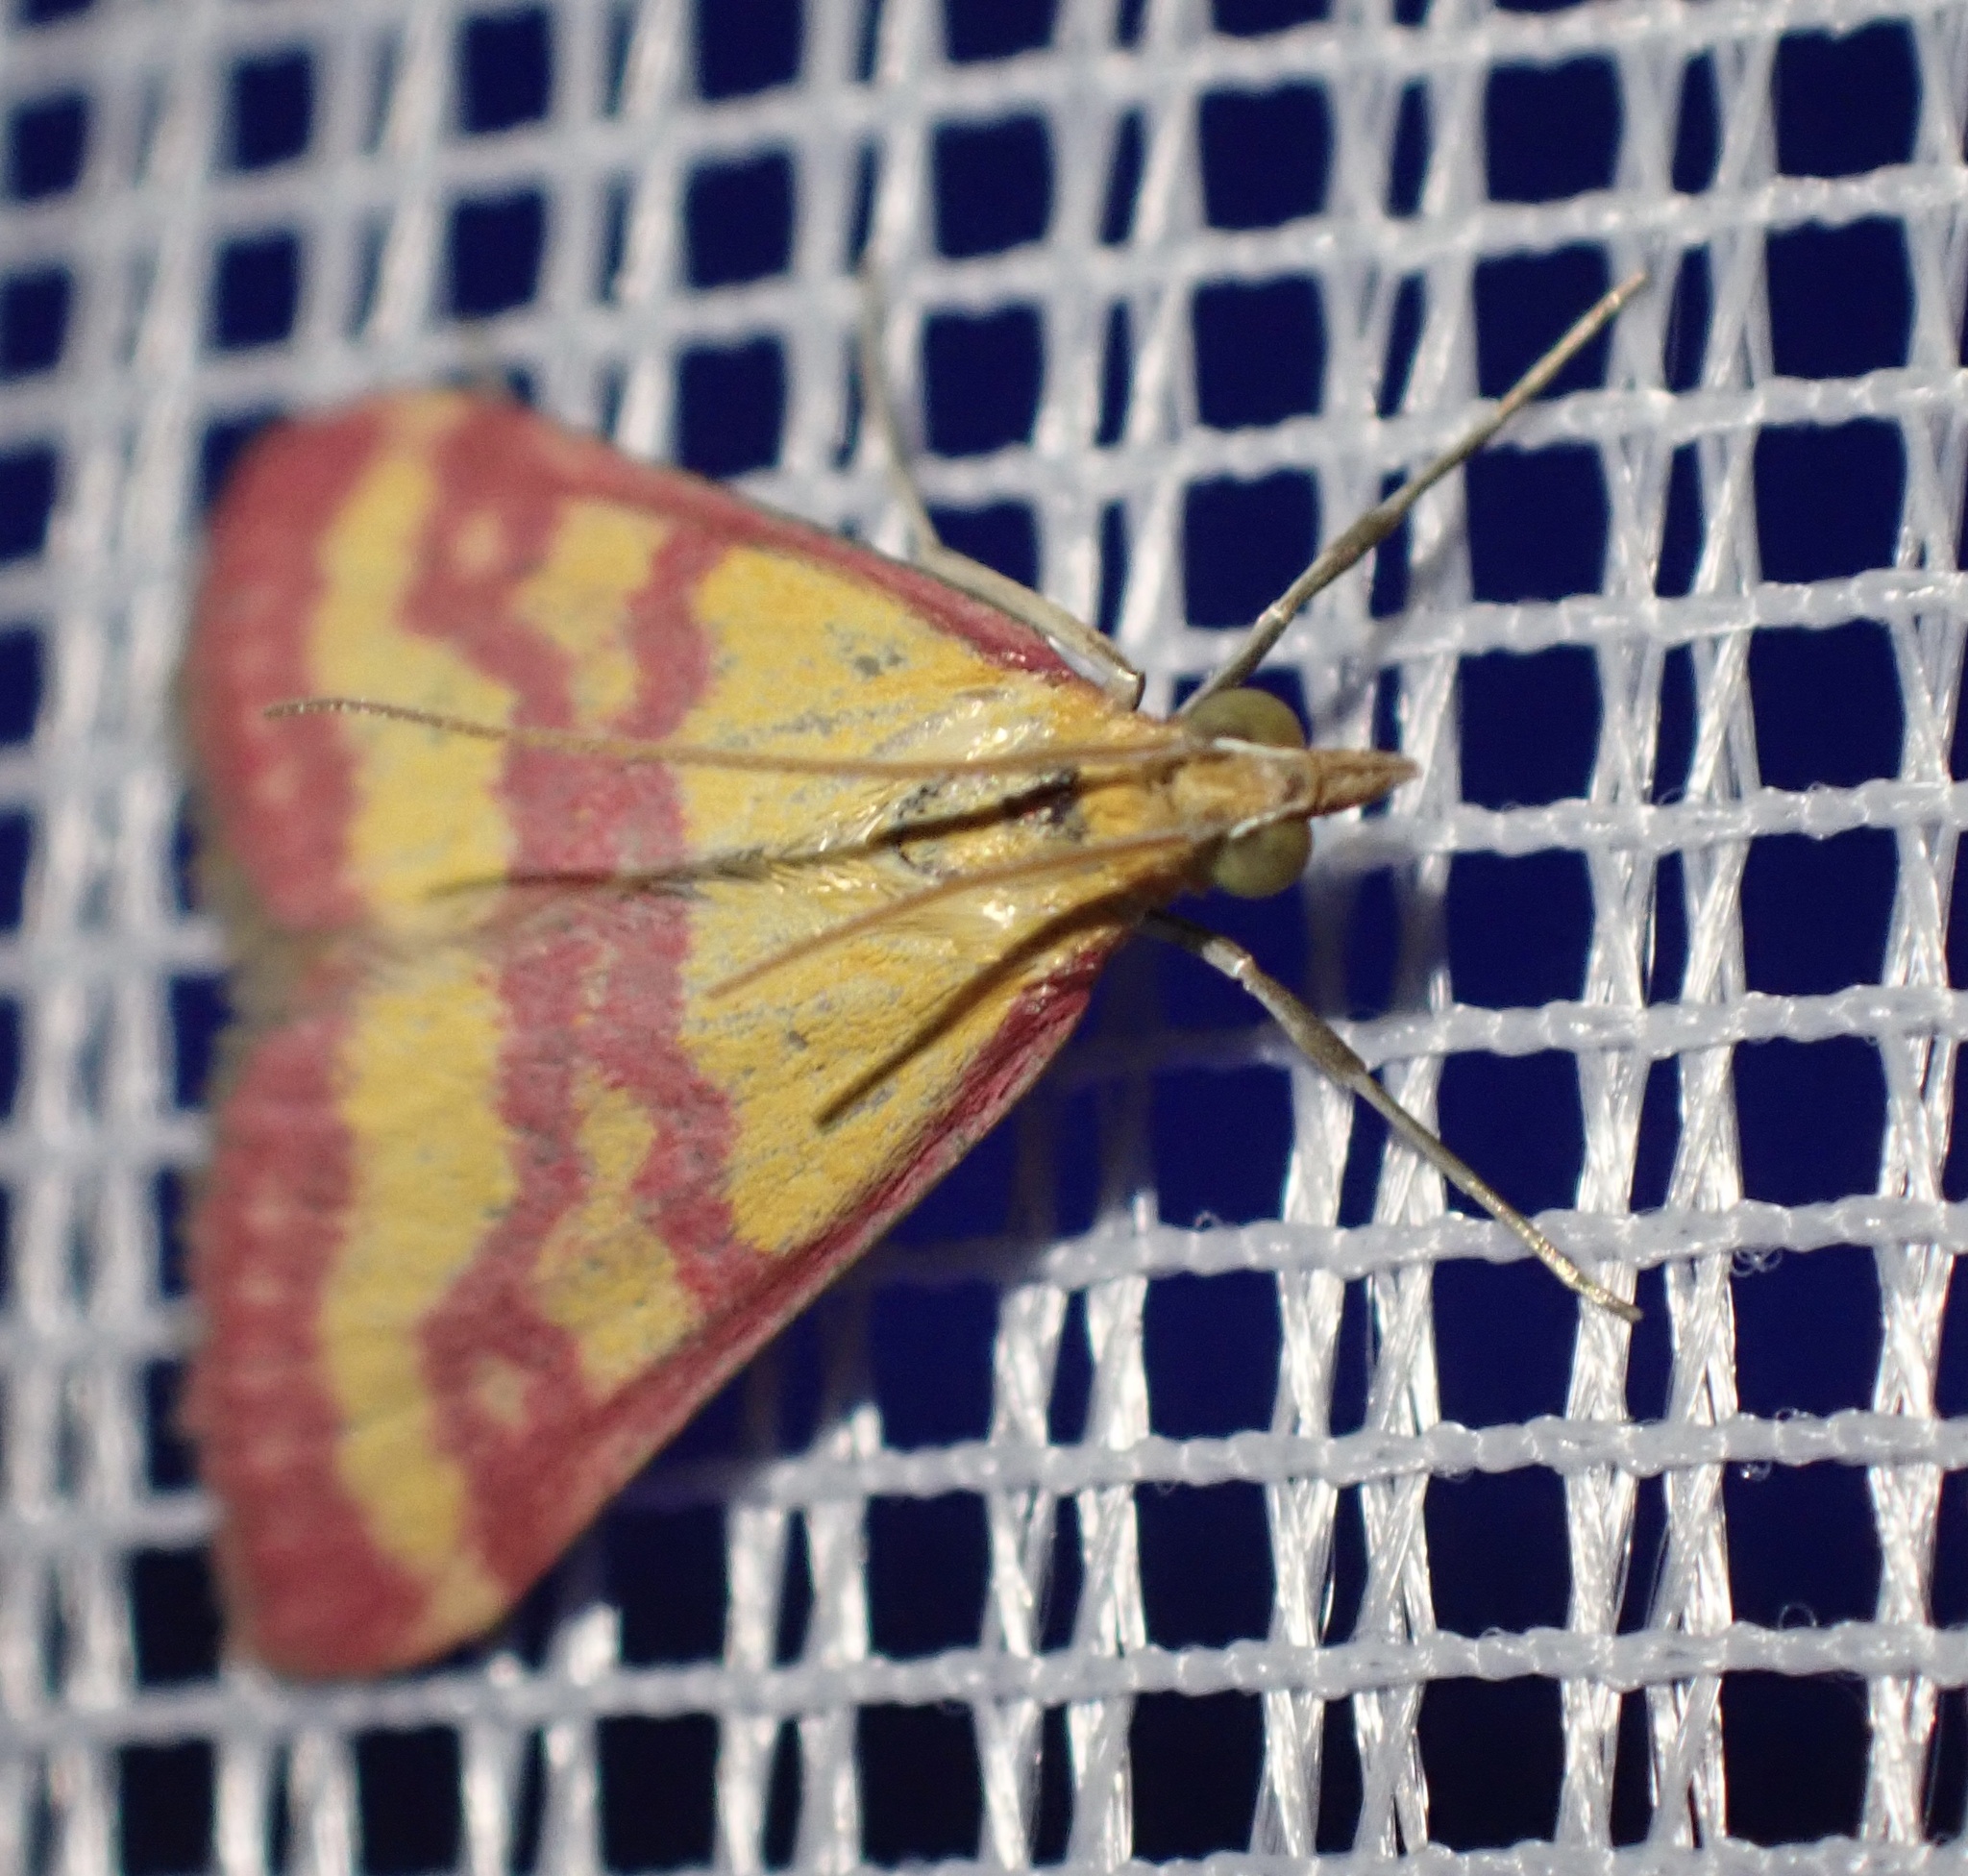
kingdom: Animalia
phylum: Arthropoda
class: Insecta
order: Lepidoptera
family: Crambidae
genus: Pyrausta
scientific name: Pyrausta virginalis
